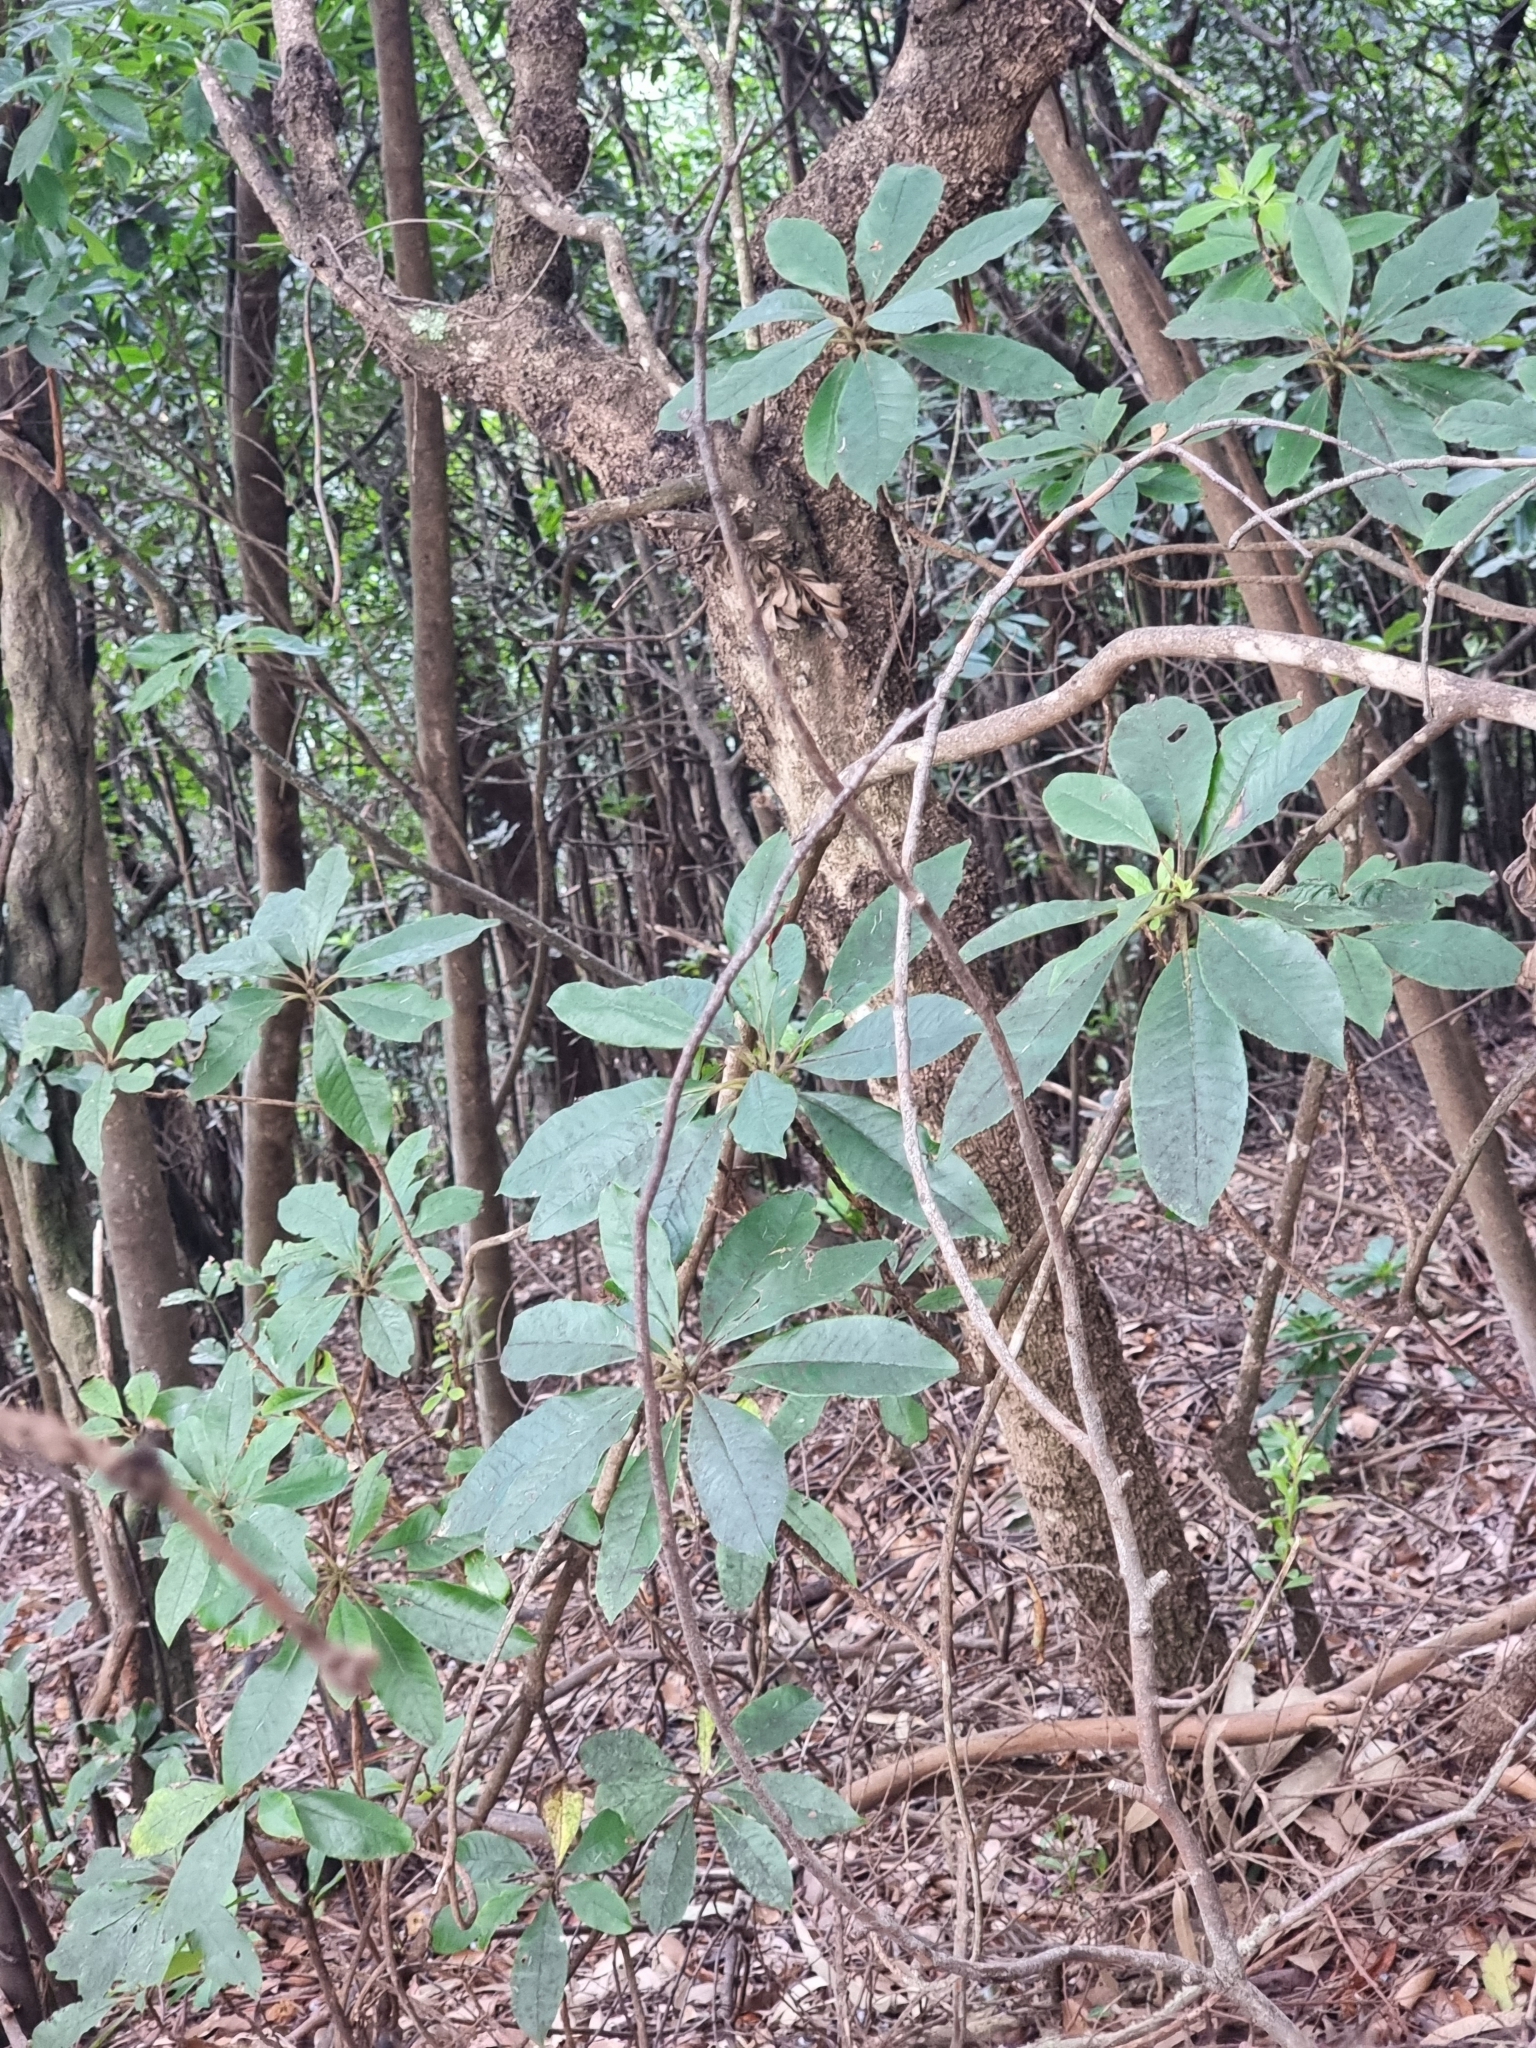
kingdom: Plantae
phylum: Tracheophyta
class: Magnoliopsida
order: Ericales
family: Clethraceae
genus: Clethra
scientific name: Clethra arborea
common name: Lily-of-the-valley-tree
